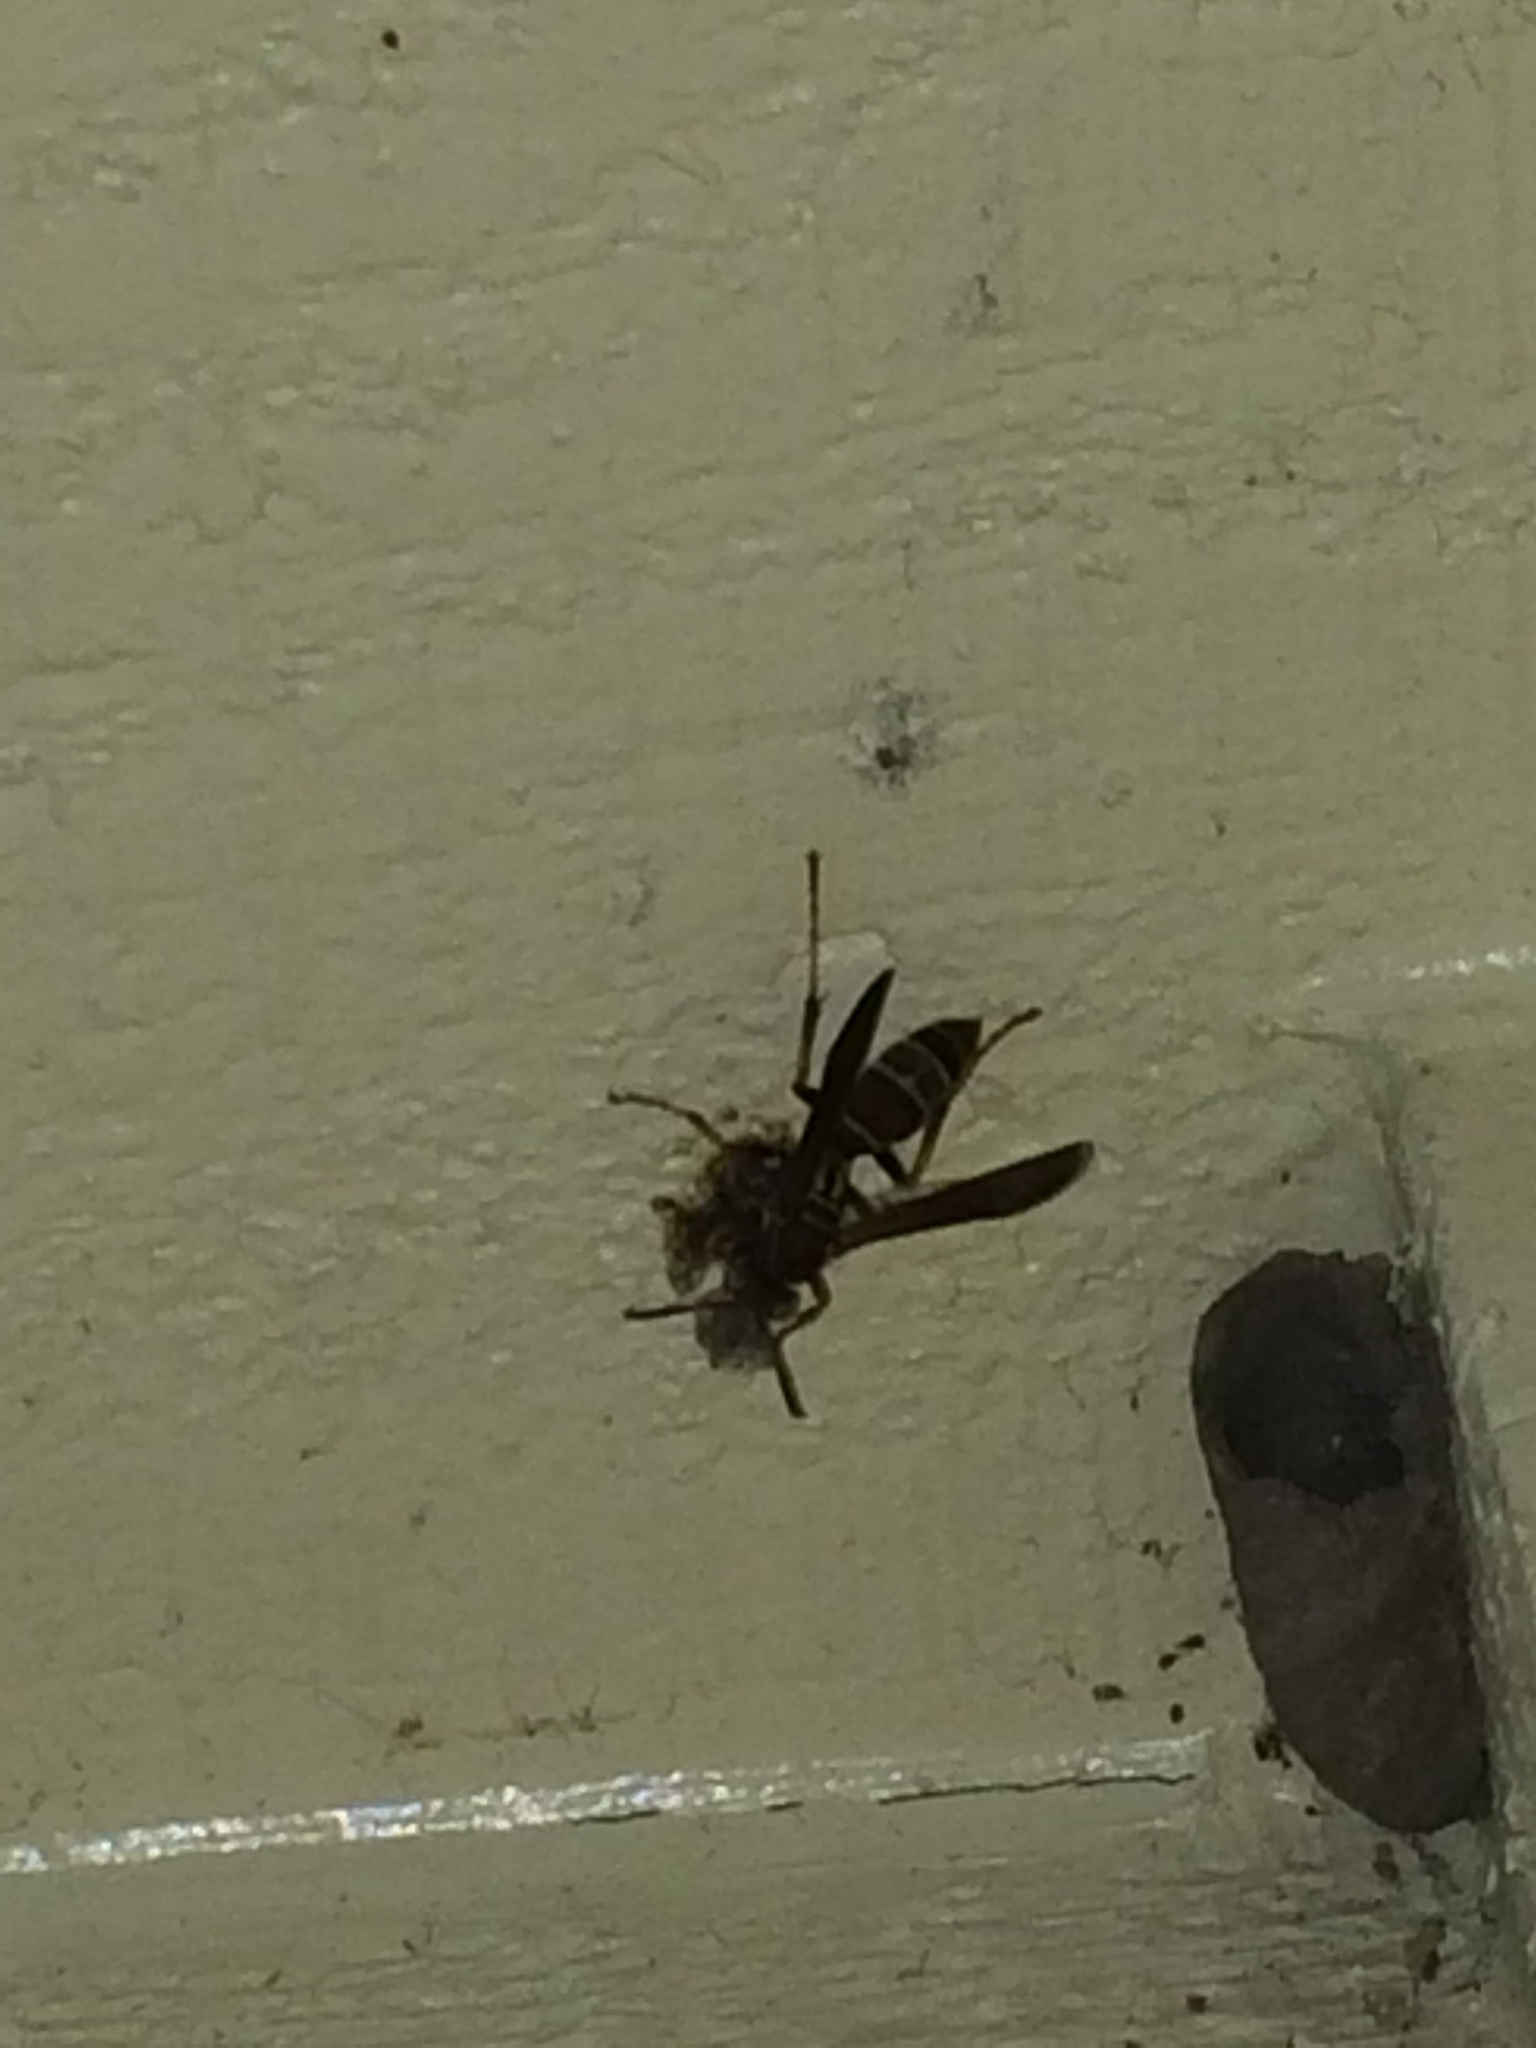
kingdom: Animalia
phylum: Arthropoda
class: Insecta
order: Hymenoptera
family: Vespidae
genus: Fuscopolistes
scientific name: Fuscopolistes
